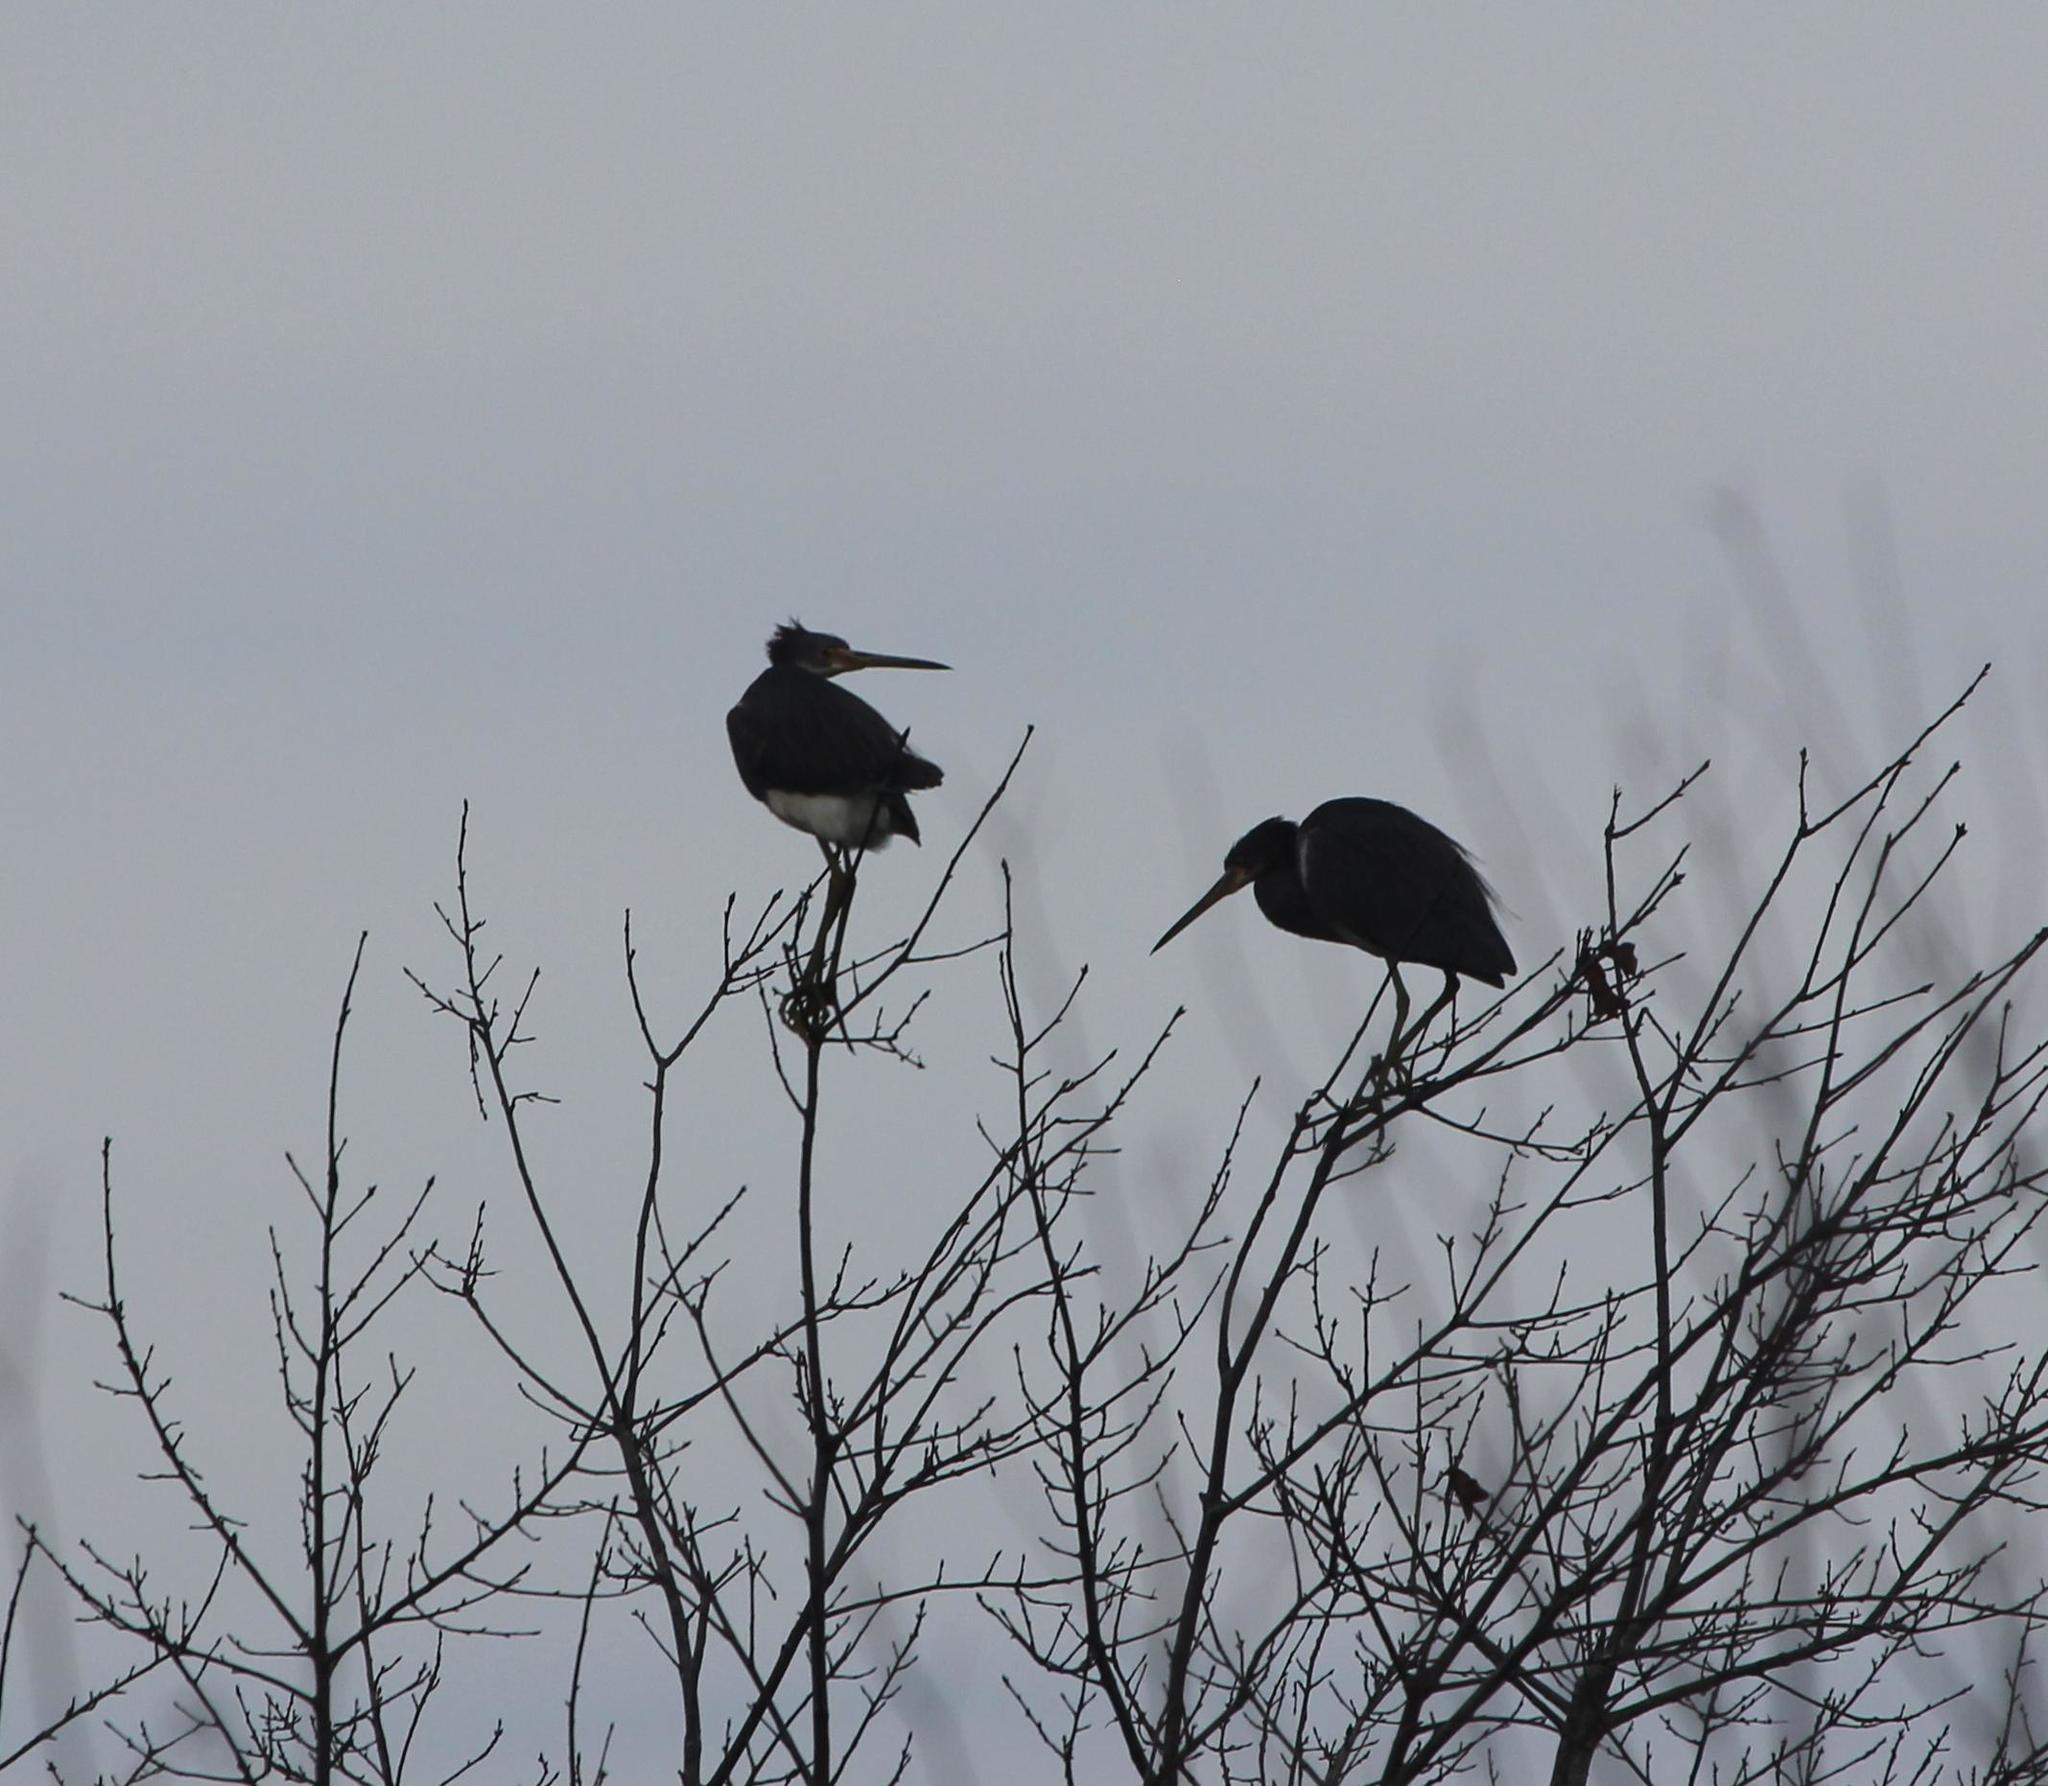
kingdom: Animalia
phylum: Chordata
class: Aves
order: Pelecaniformes
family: Ardeidae
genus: Egretta
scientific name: Egretta tricolor
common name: Tricolored heron
